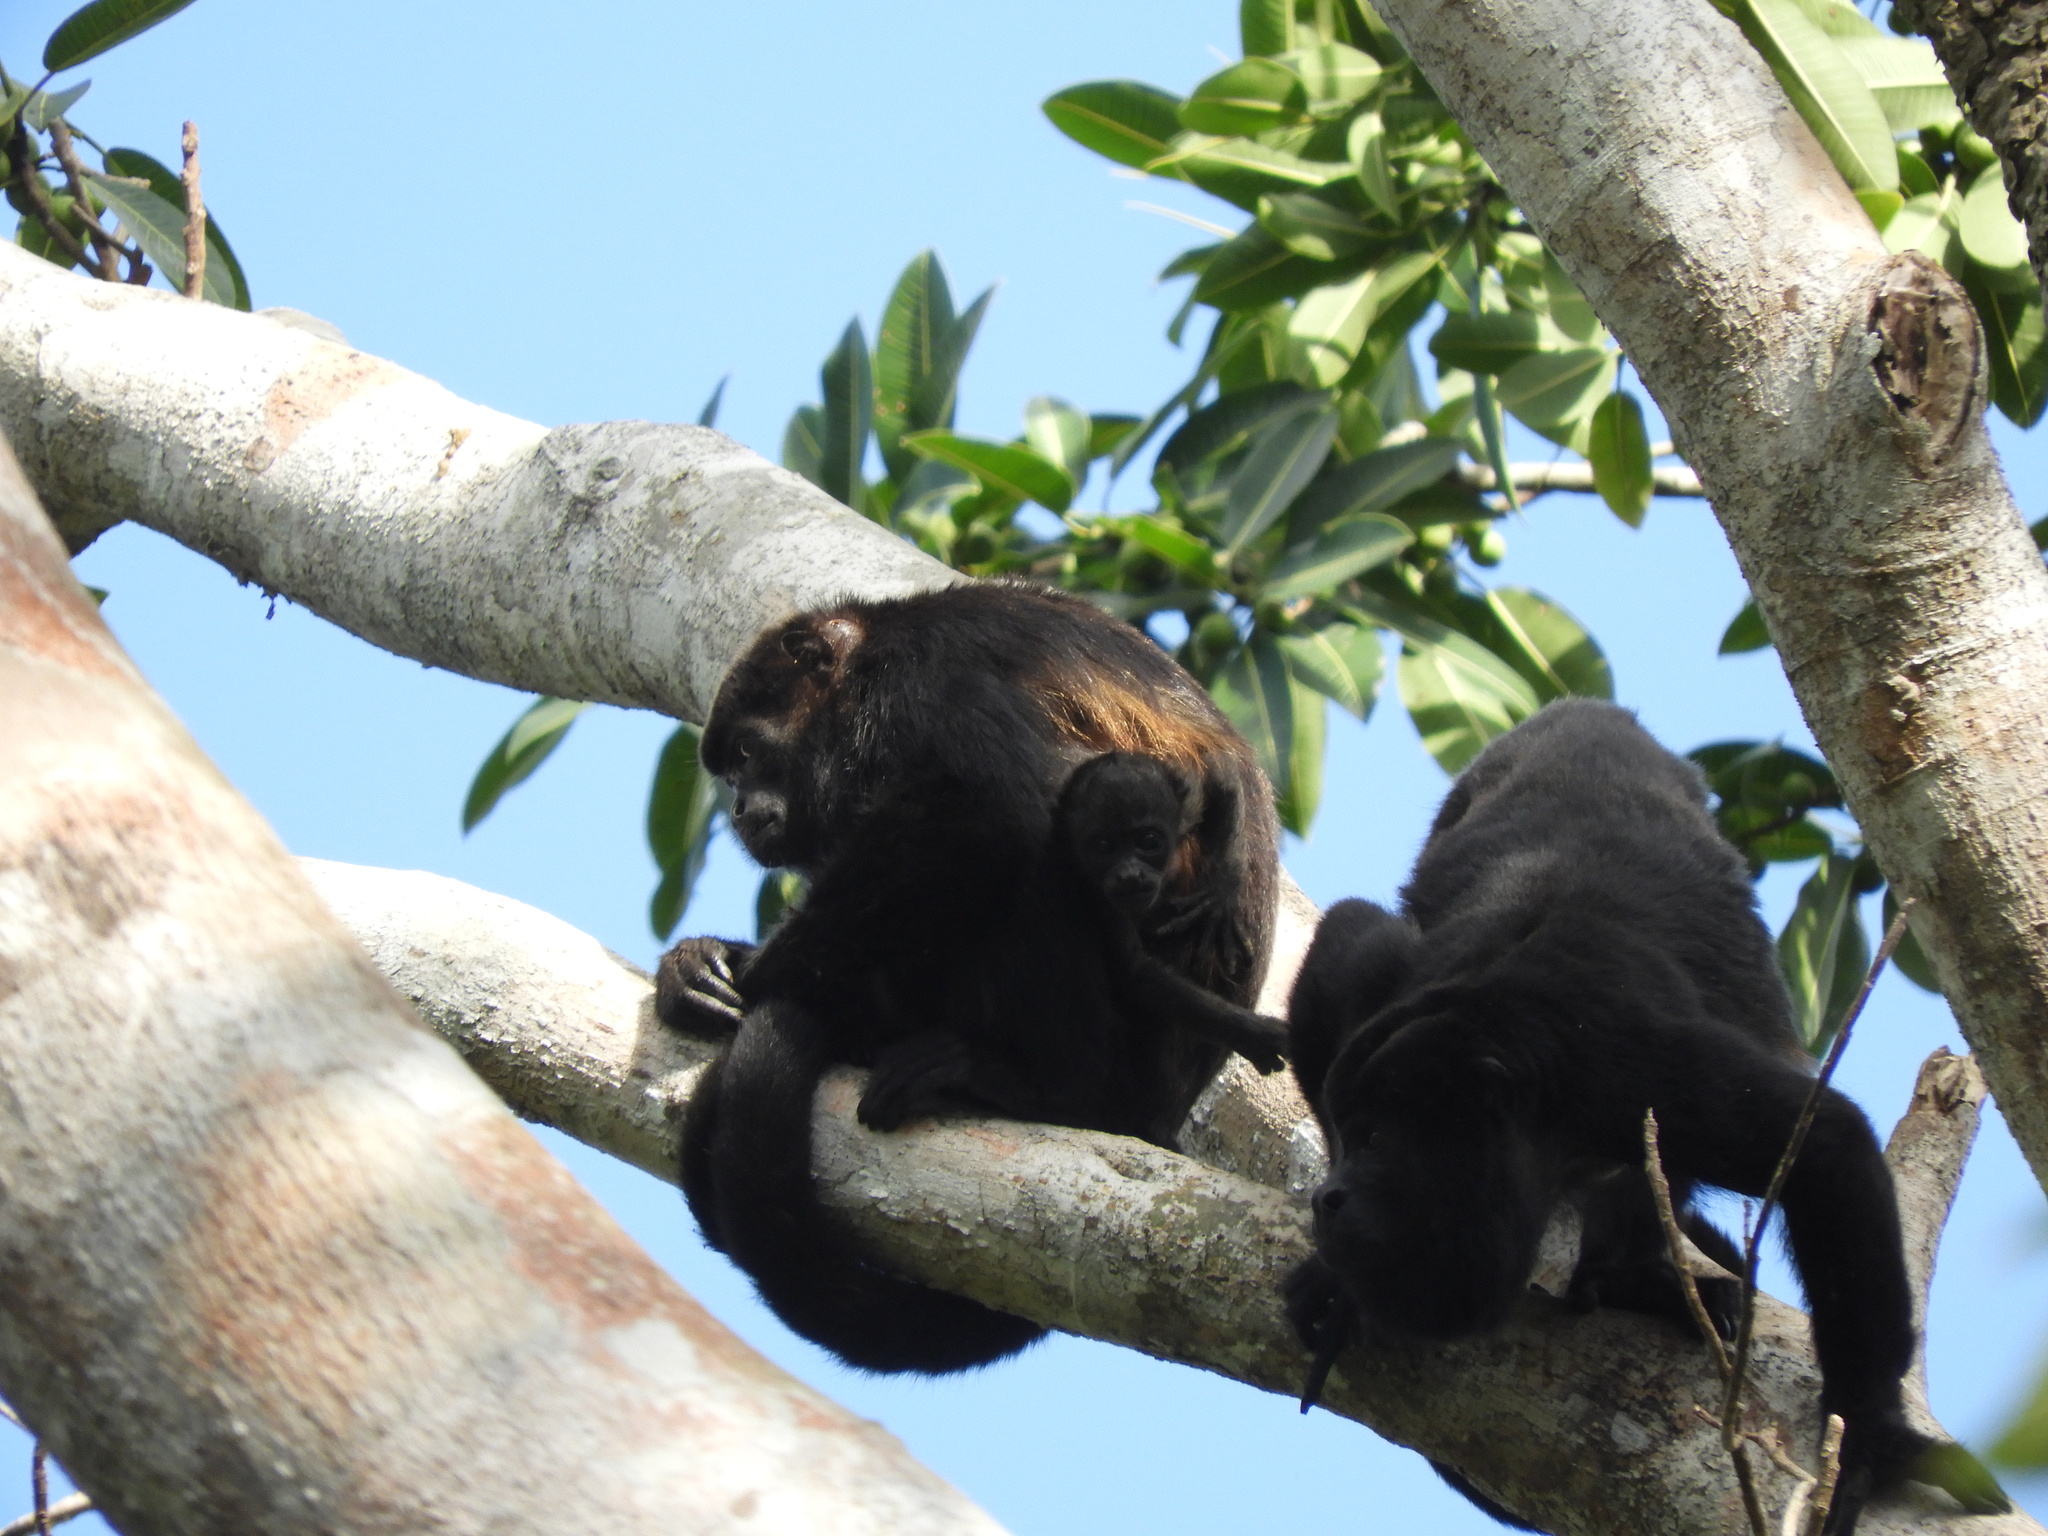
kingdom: Animalia
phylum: Chordata
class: Mammalia
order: Primates
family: Atelidae
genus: Alouatta
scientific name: Alouatta palliata
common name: Mantled howler
